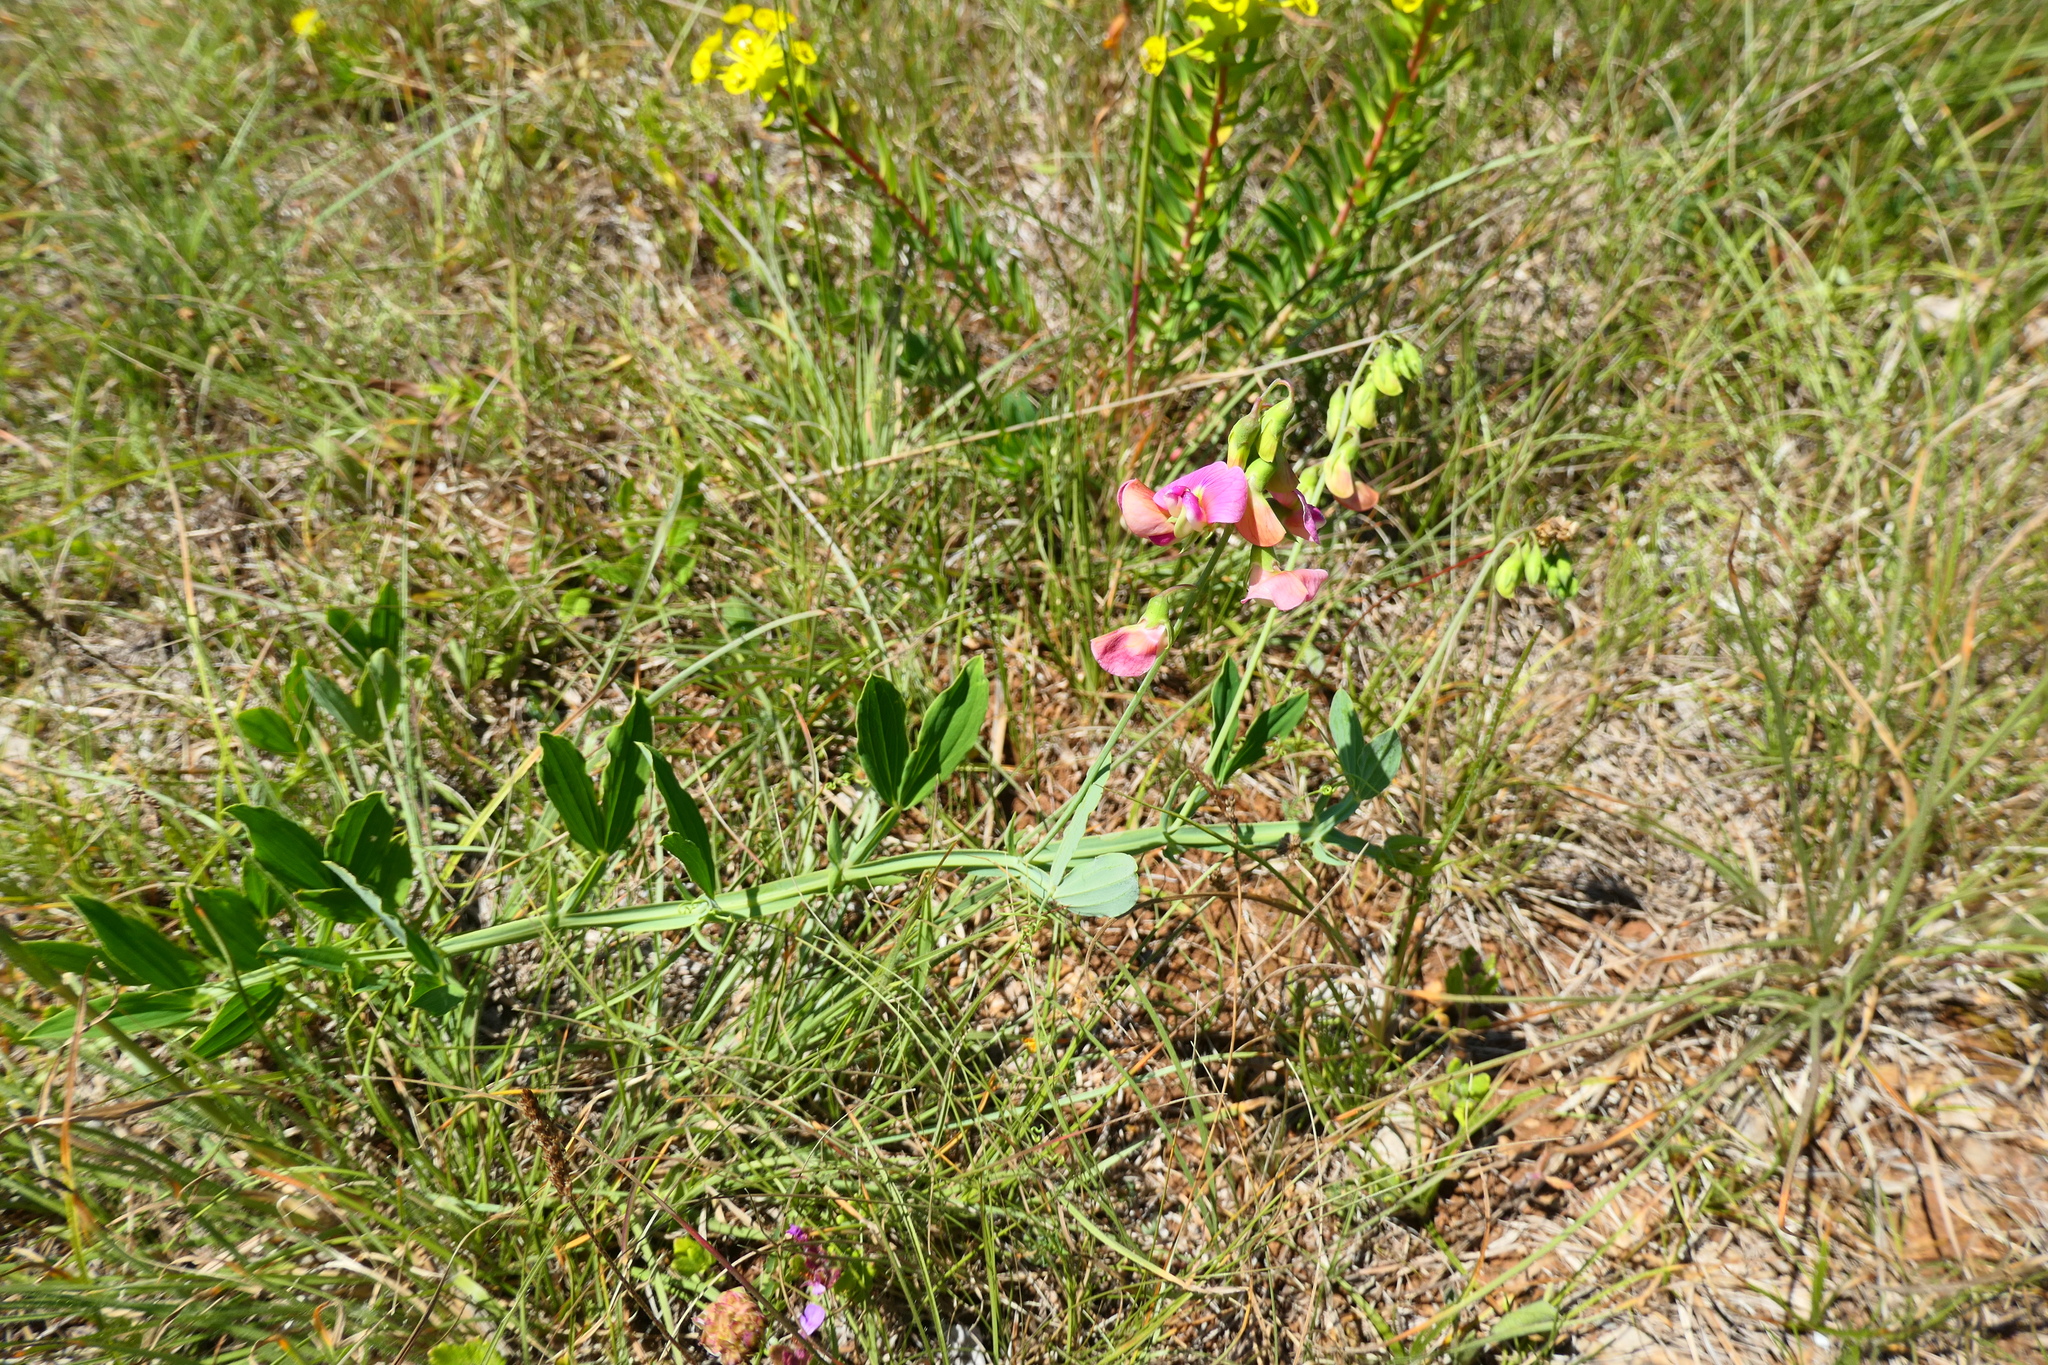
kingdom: Plantae
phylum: Tracheophyta
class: Magnoliopsida
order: Fabales
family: Fabaceae
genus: Lathyrus
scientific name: Lathyrus latifolius
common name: Perennial pea
